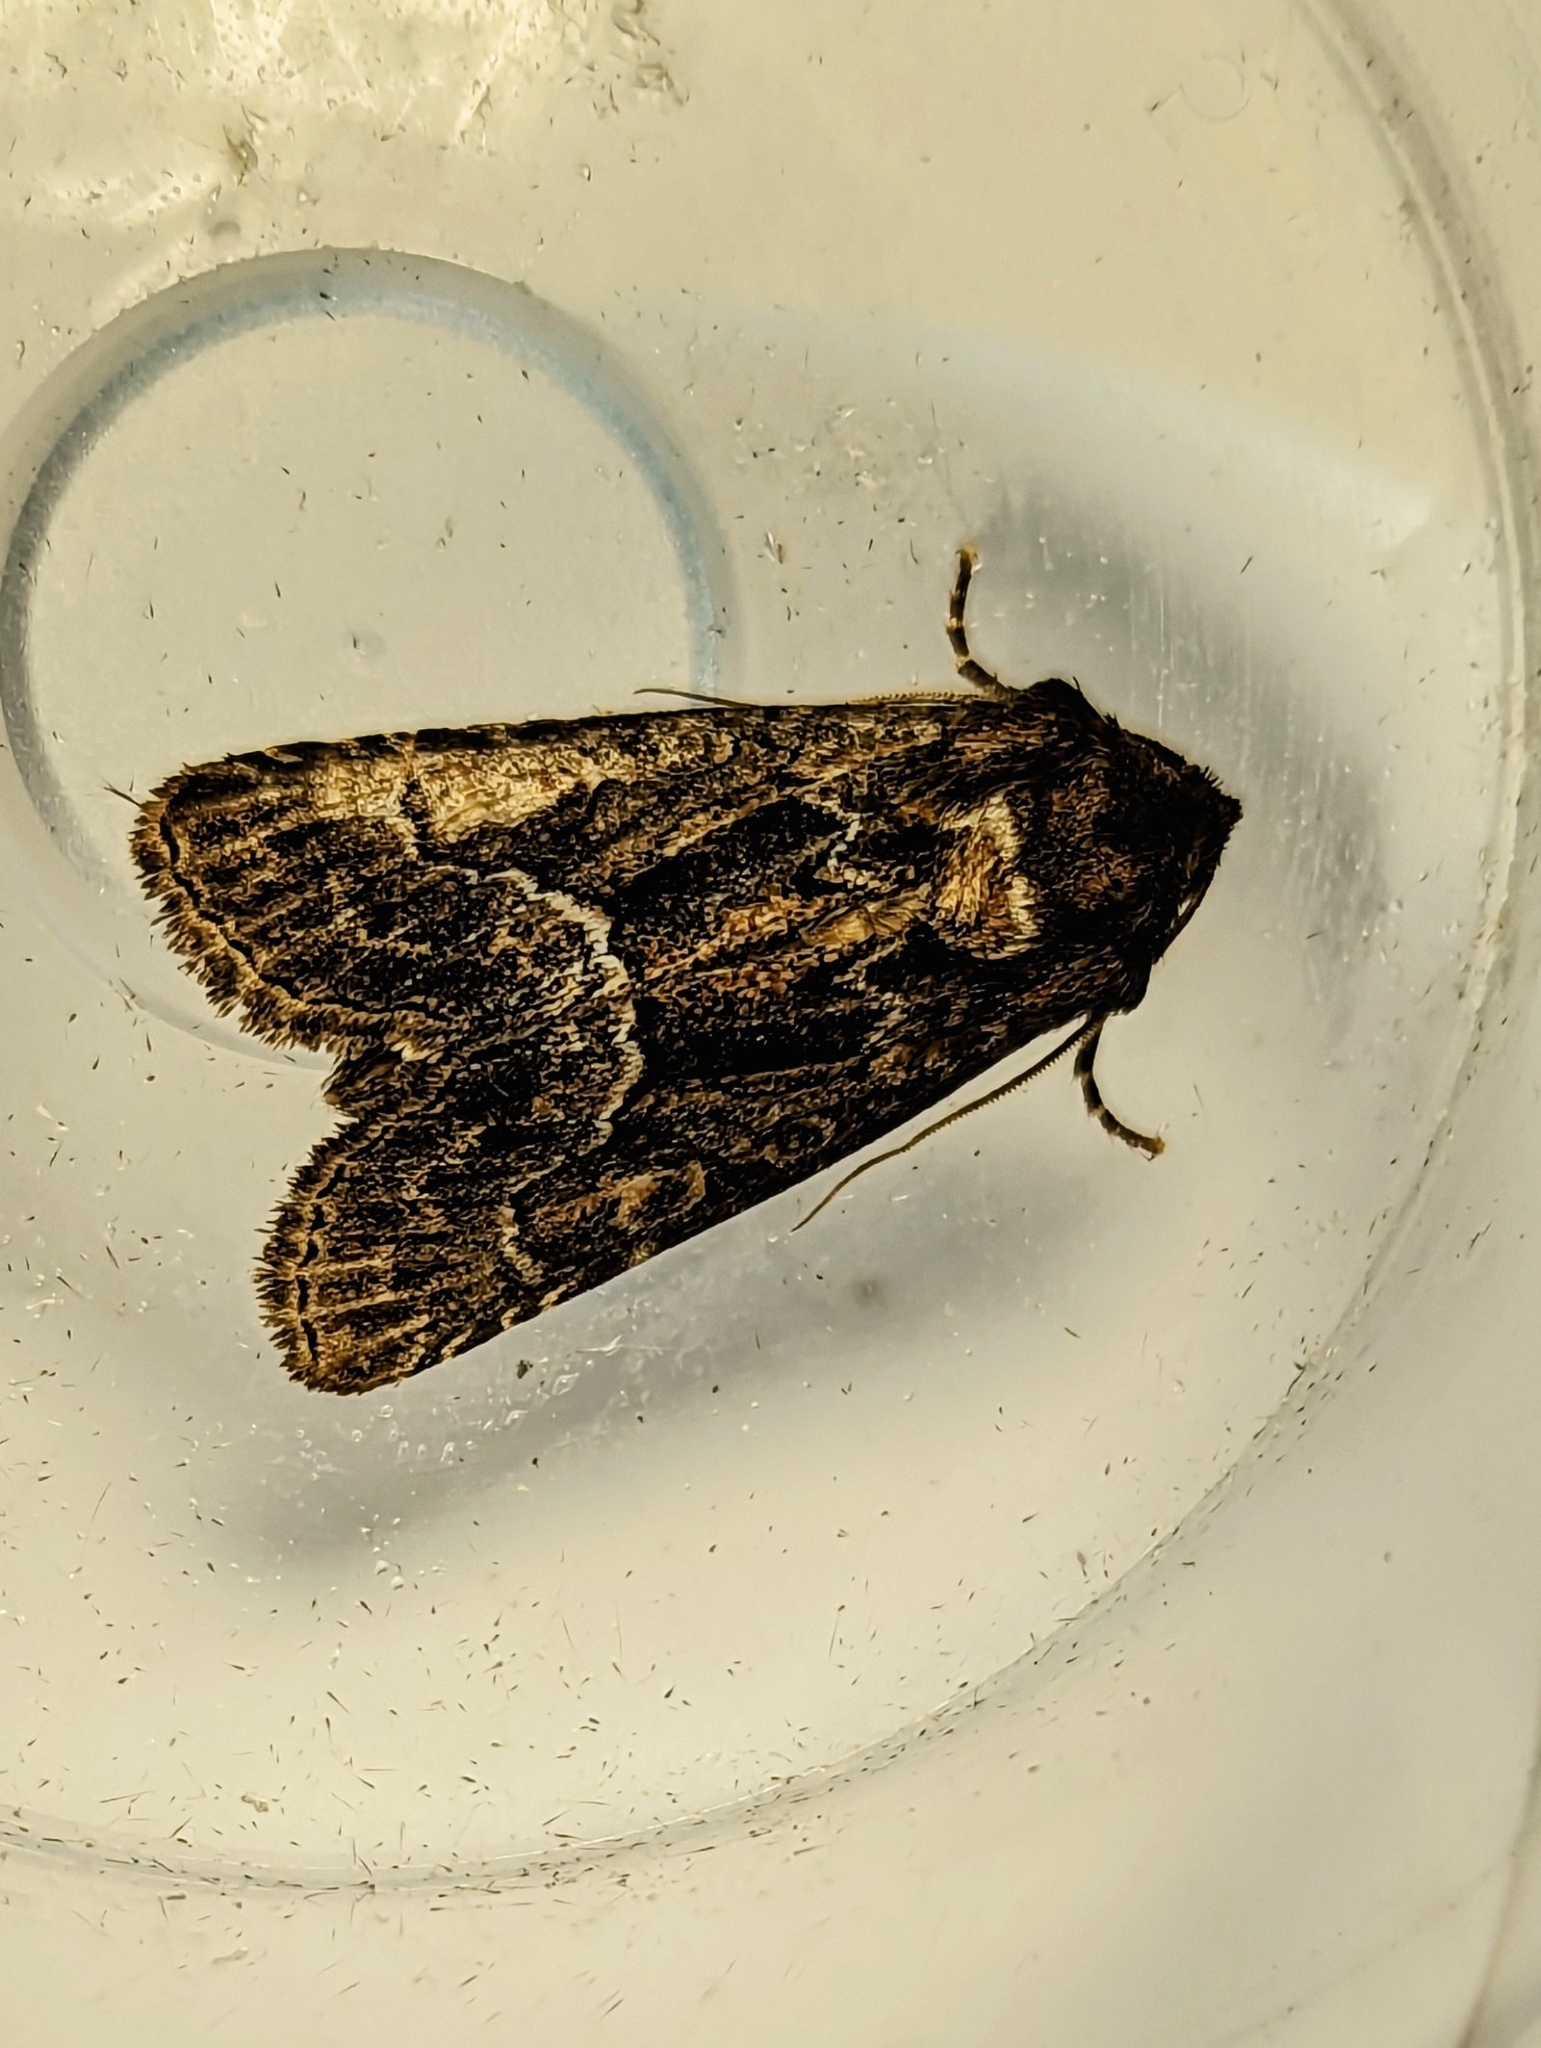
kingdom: Animalia
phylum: Arthropoda
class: Insecta
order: Lepidoptera
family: Noctuidae
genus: Thalpophila
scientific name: Thalpophila matura
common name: Straw underwing
